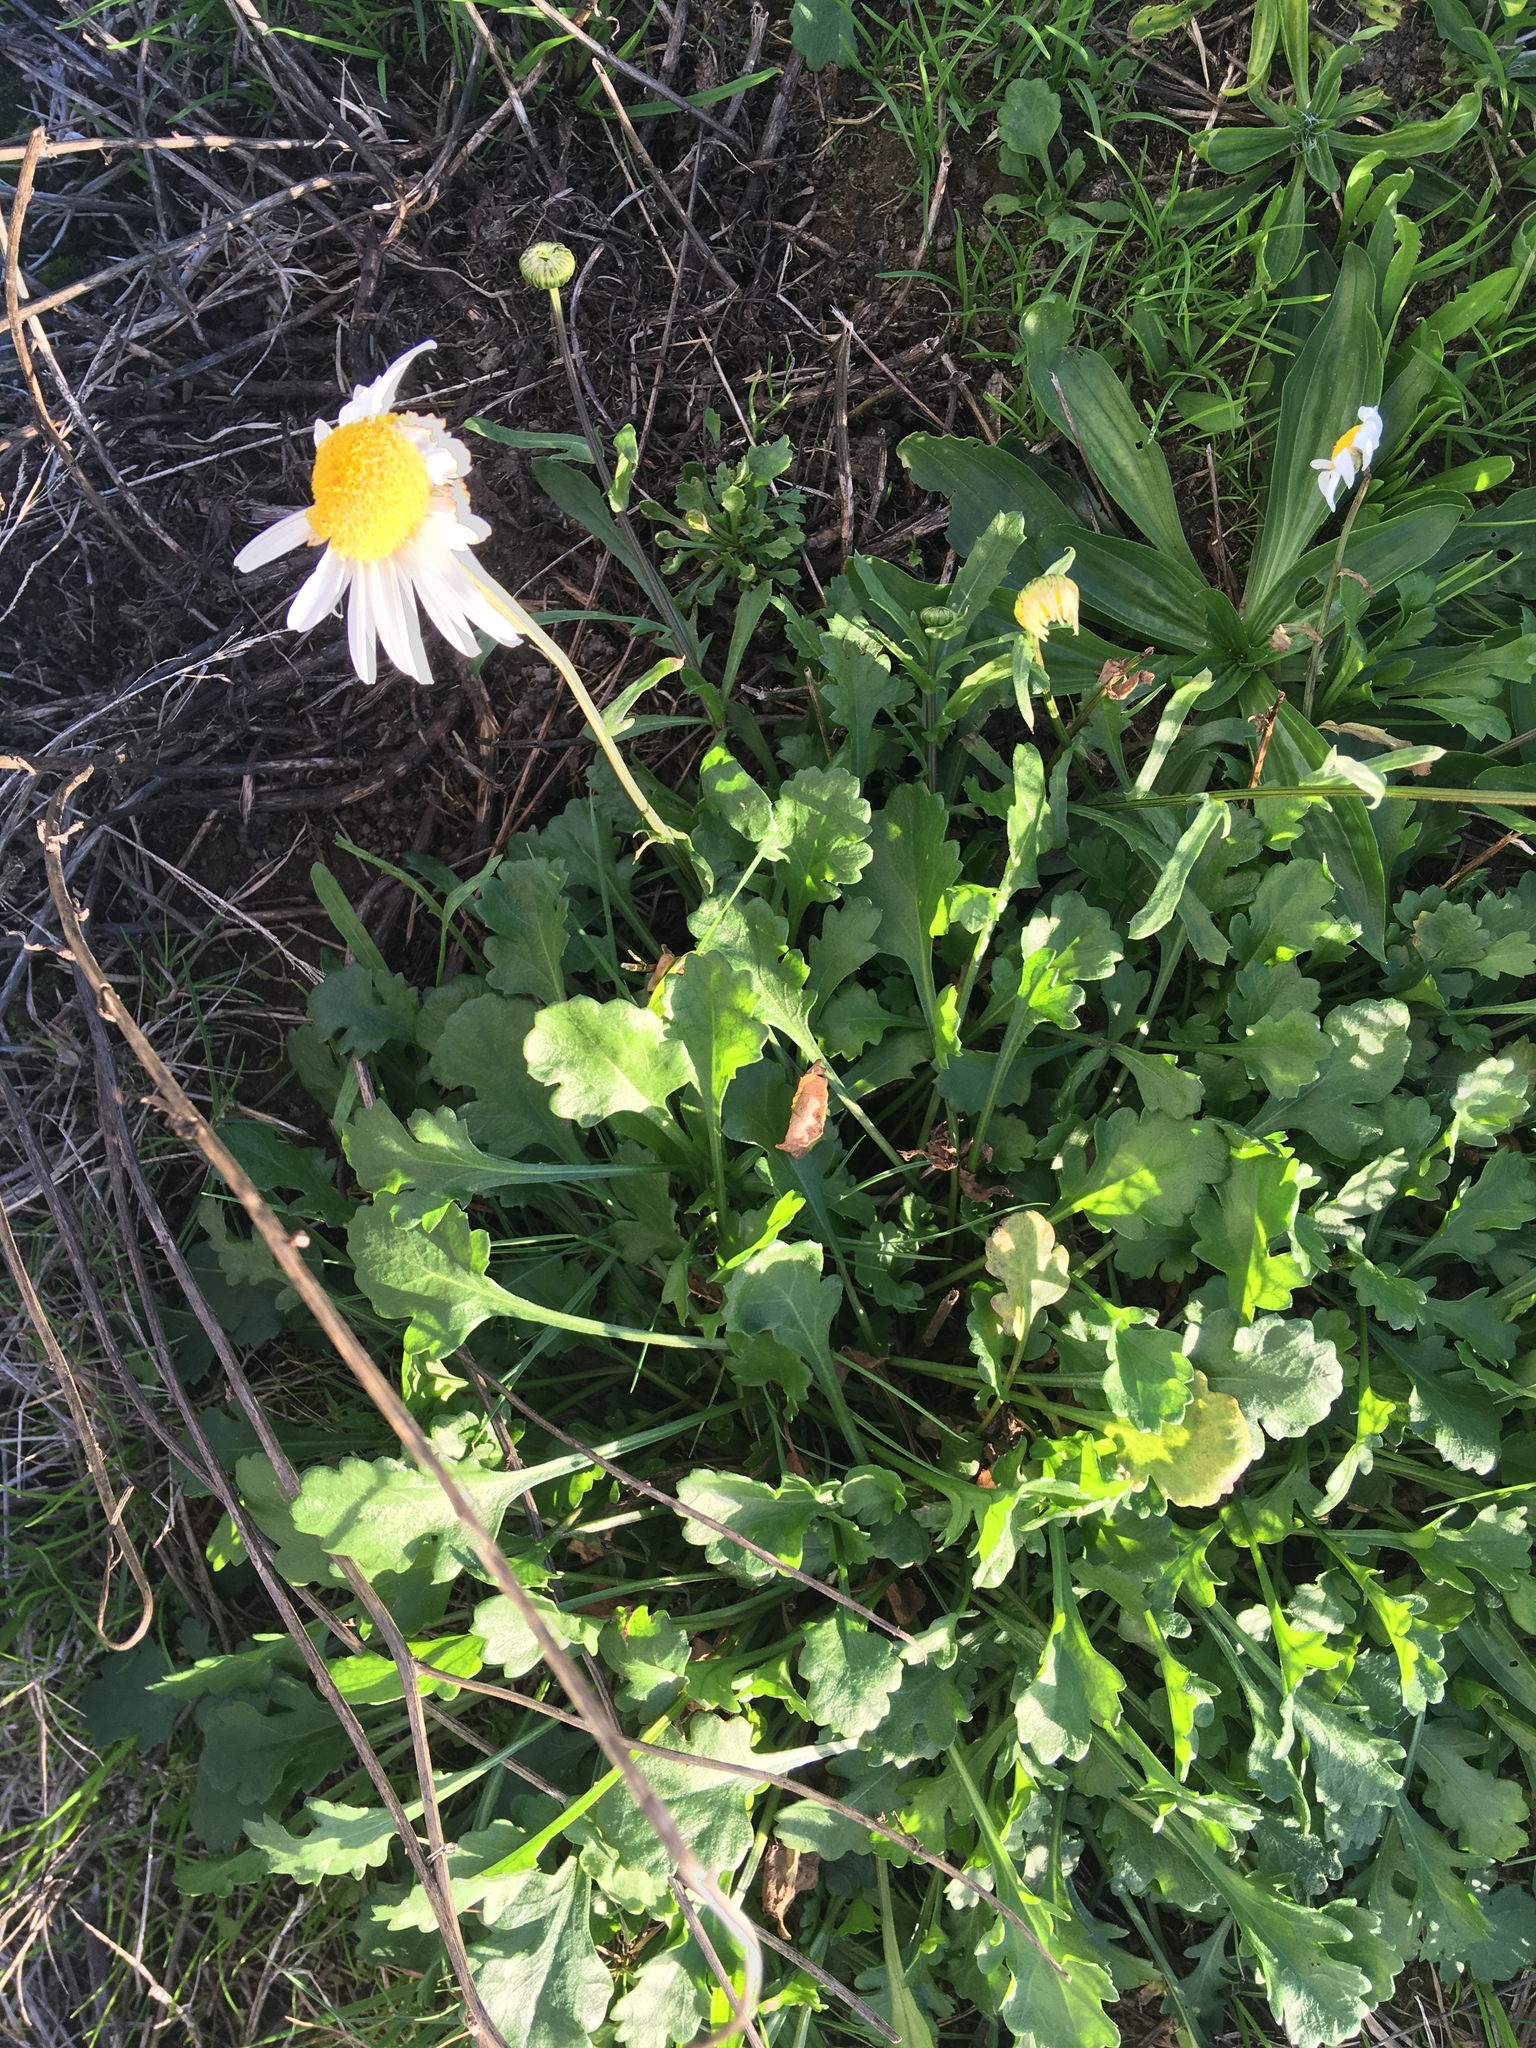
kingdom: Plantae
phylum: Tracheophyta
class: Magnoliopsida
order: Asterales
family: Asteraceae
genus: Leucanthemum
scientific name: Leucanthemum vulgare
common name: Oxeye daisy
